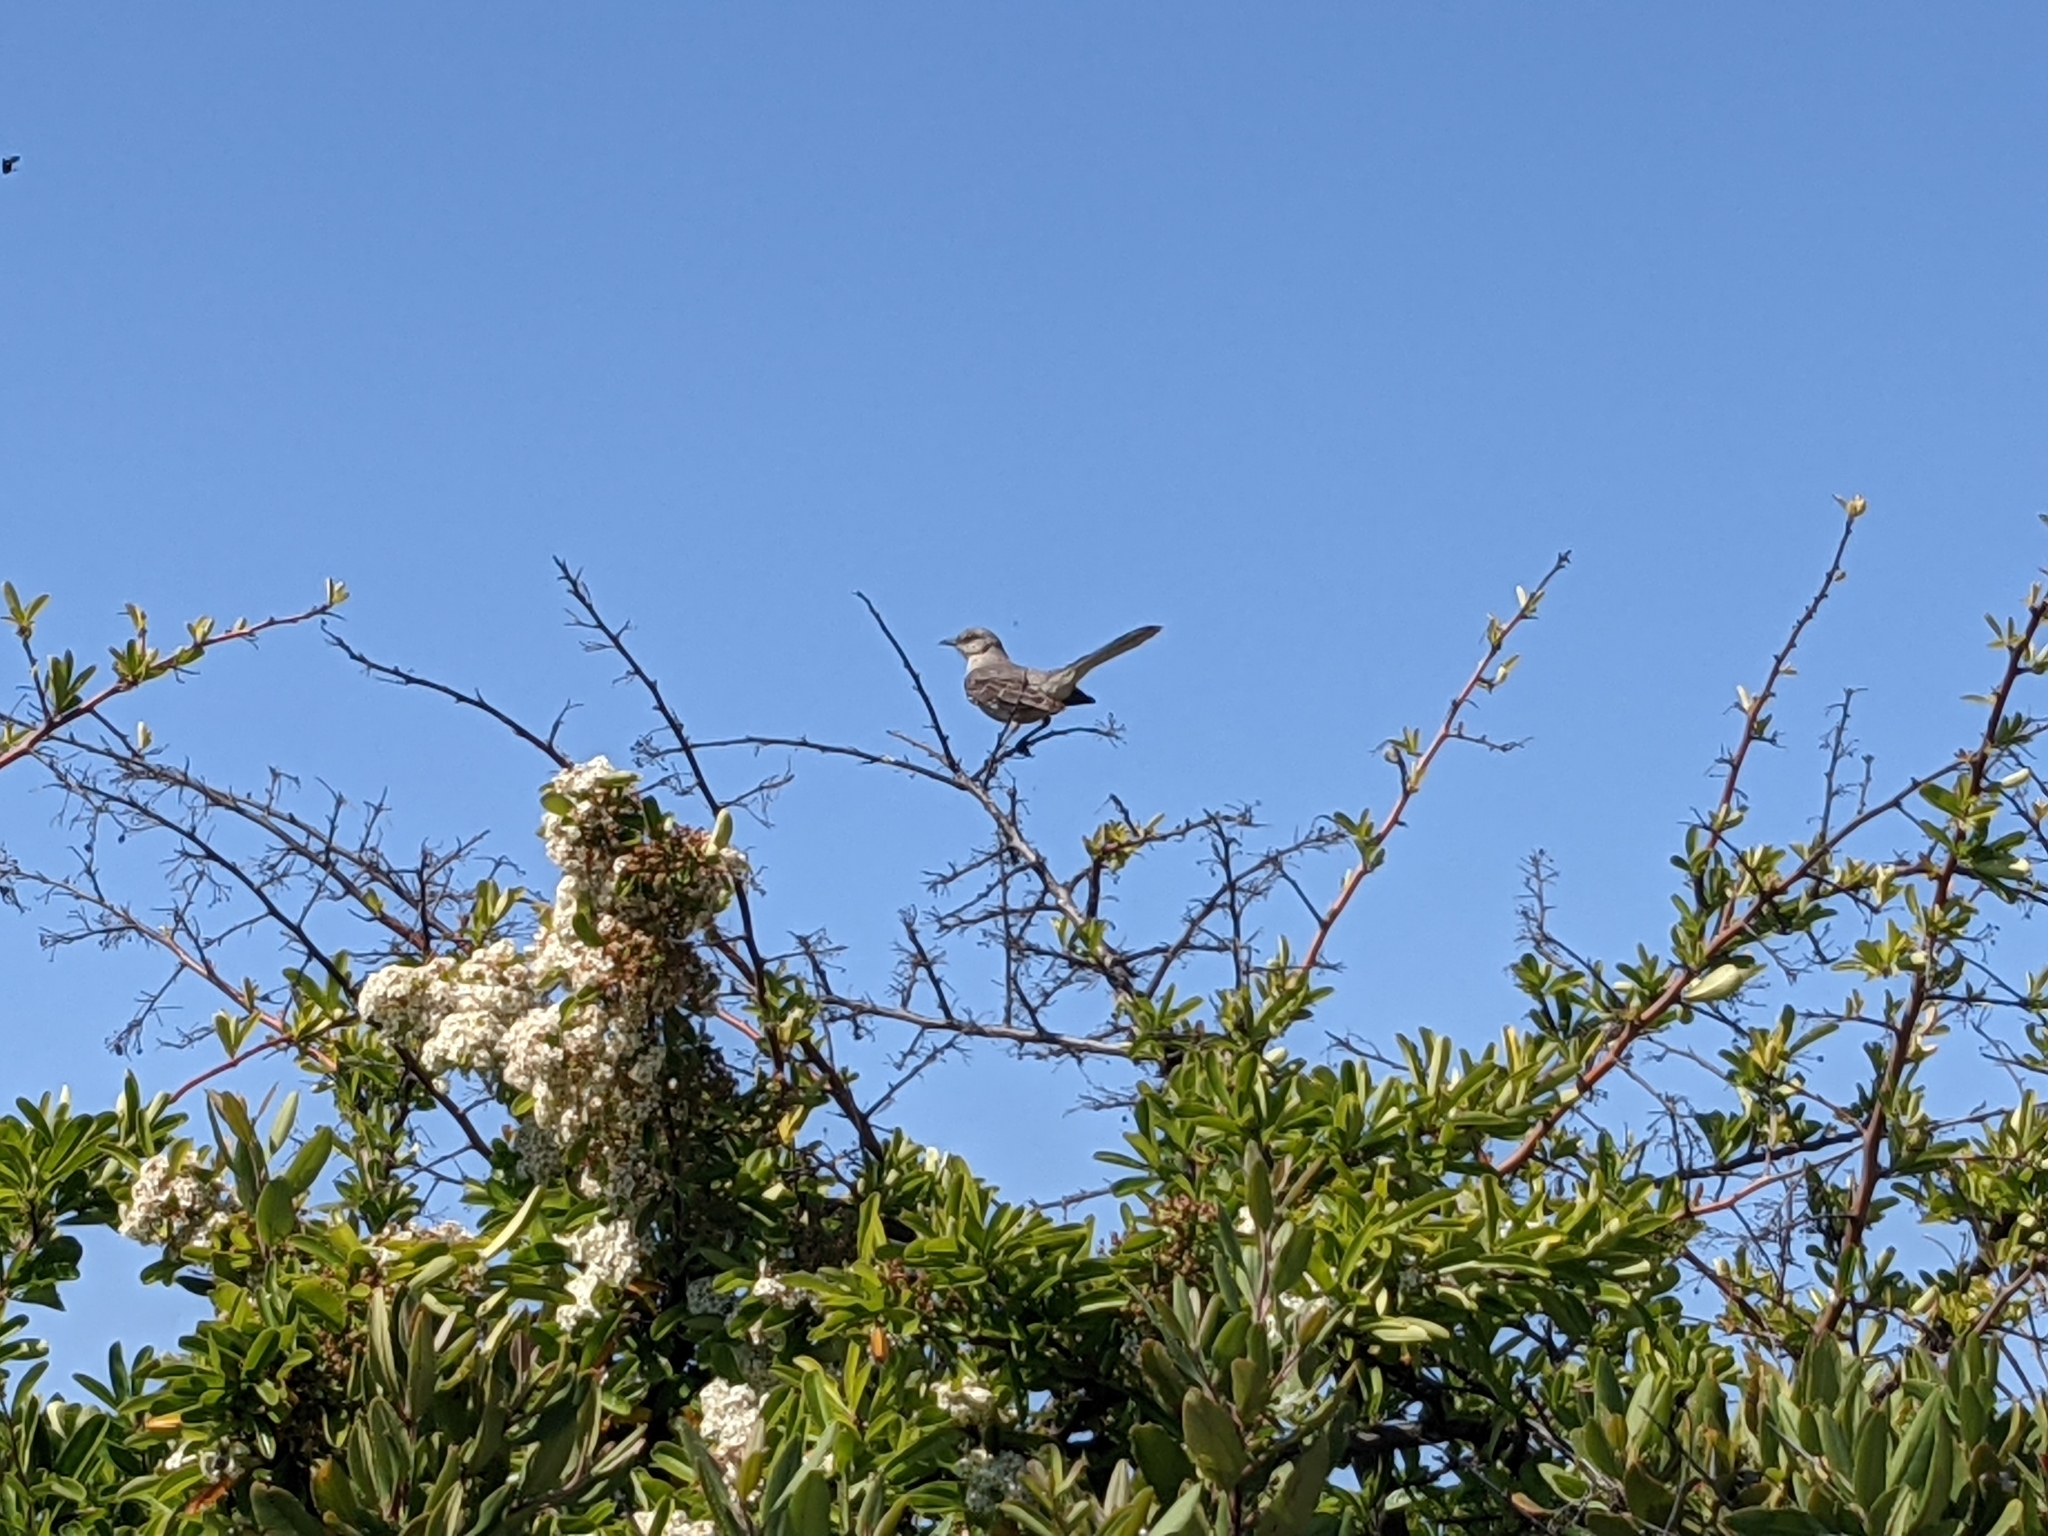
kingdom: Animalia
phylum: Chordata
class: Aves
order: Passeriformes
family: Mimidae
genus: Mimus
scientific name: Mimus polyglottos
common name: Northern mockingbird
